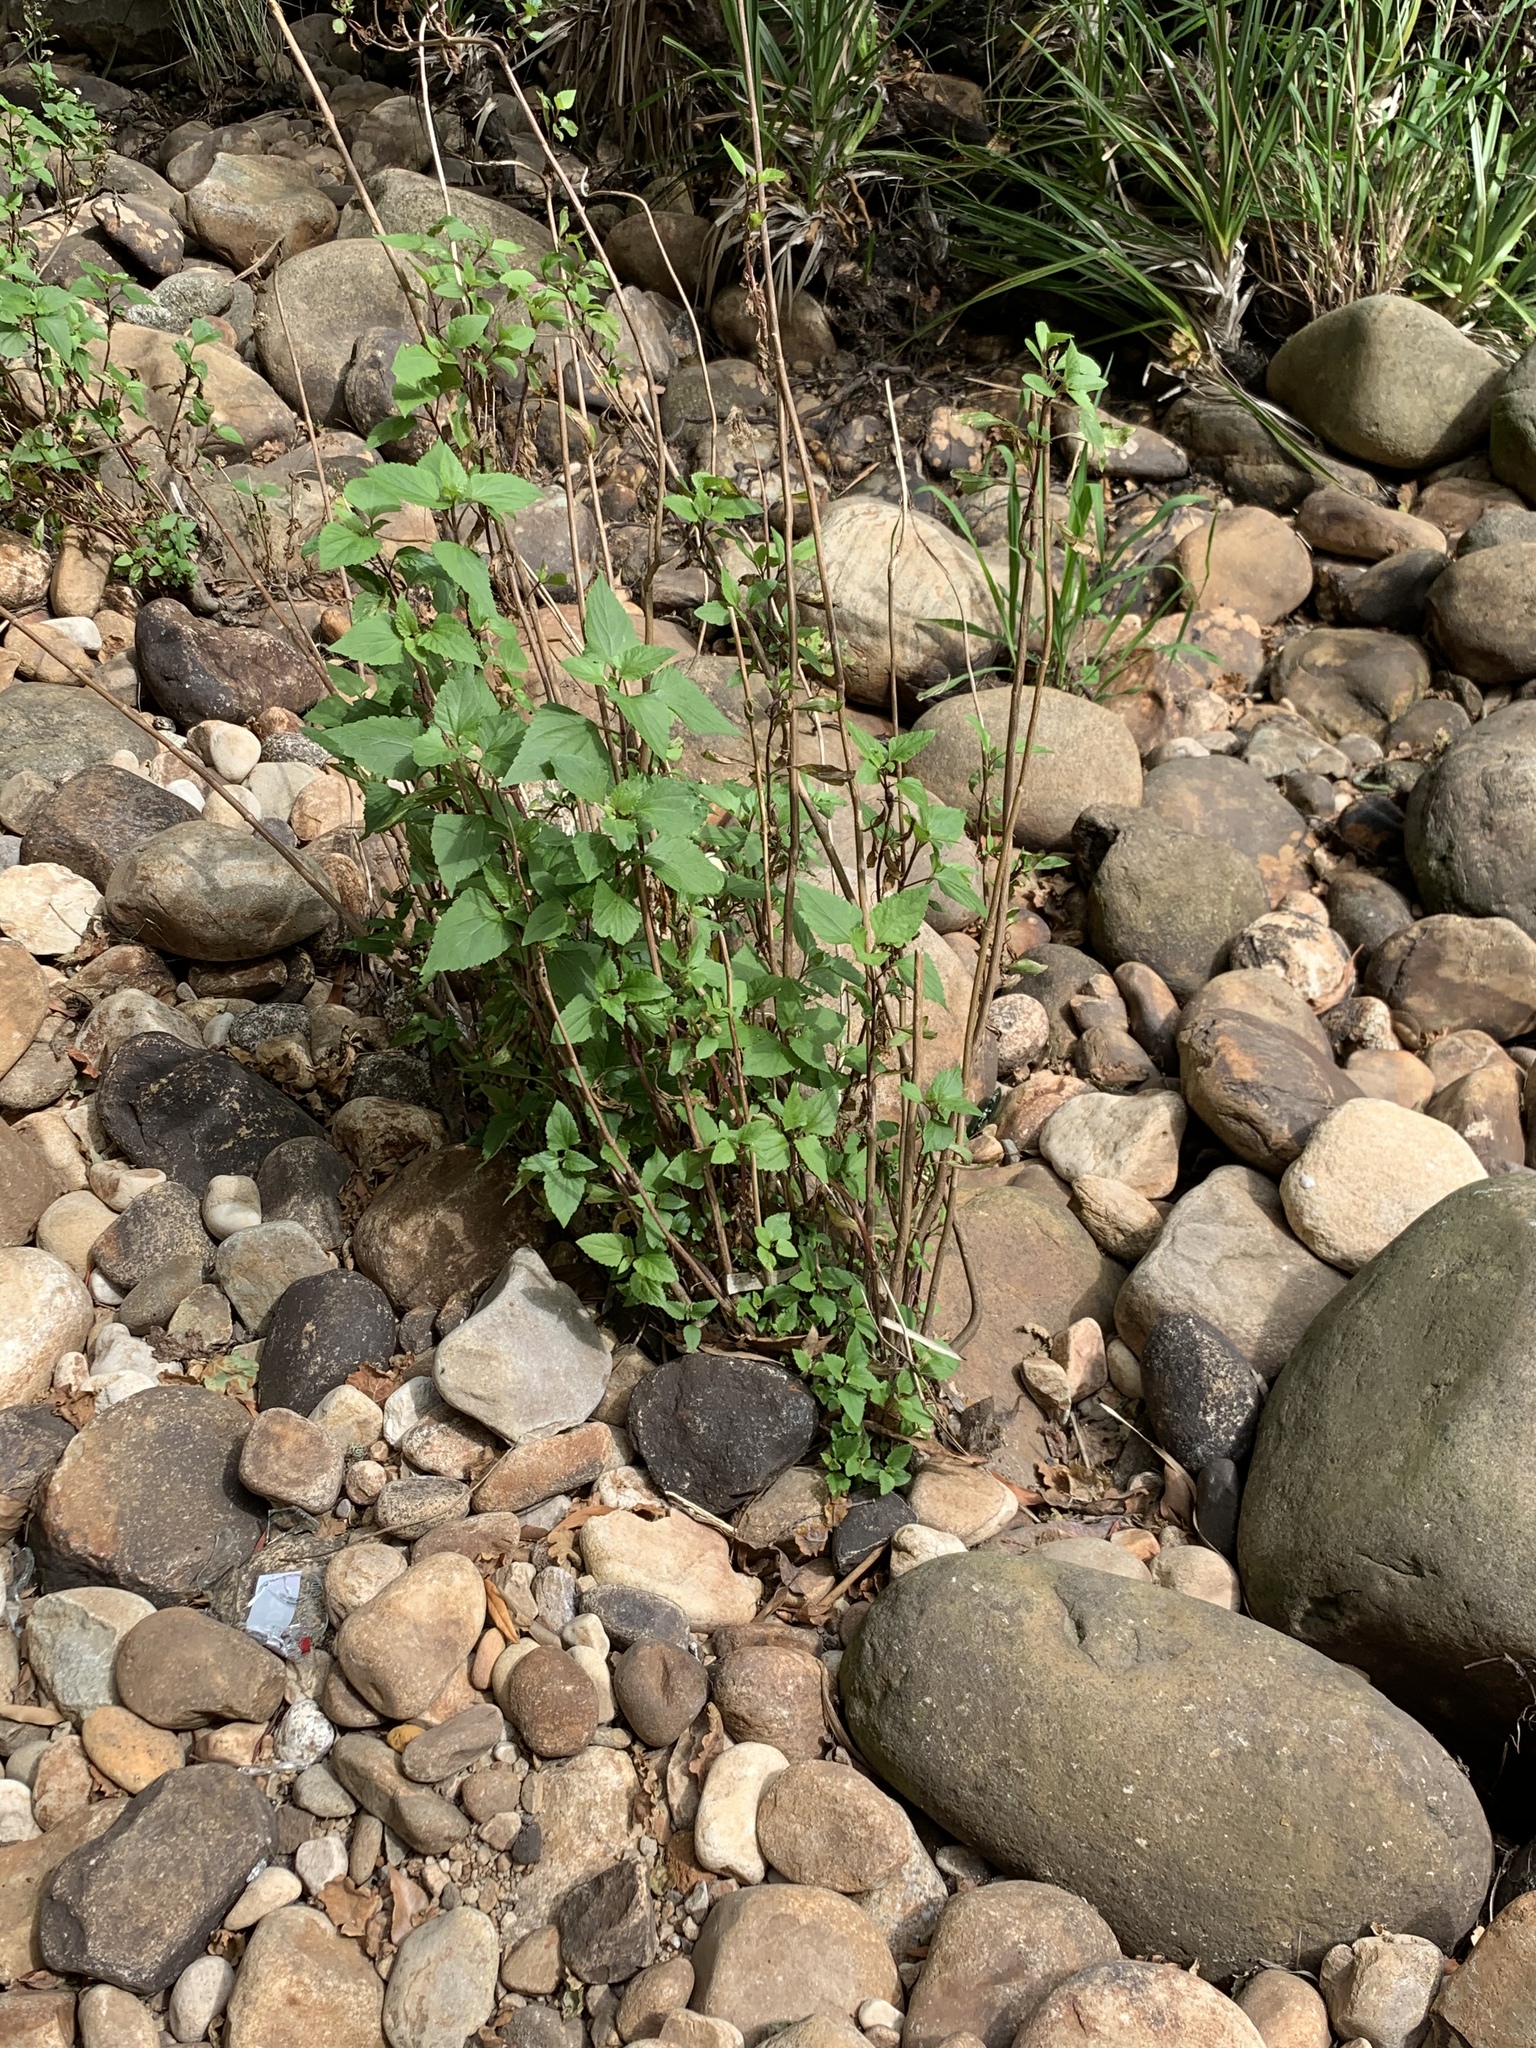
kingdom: Plantae
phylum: Tracheophyta
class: Magnoliopsida
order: Asterales
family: Asteraceae
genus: Ageratina
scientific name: Ageratina adenophora
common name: Sticky snakeroot
